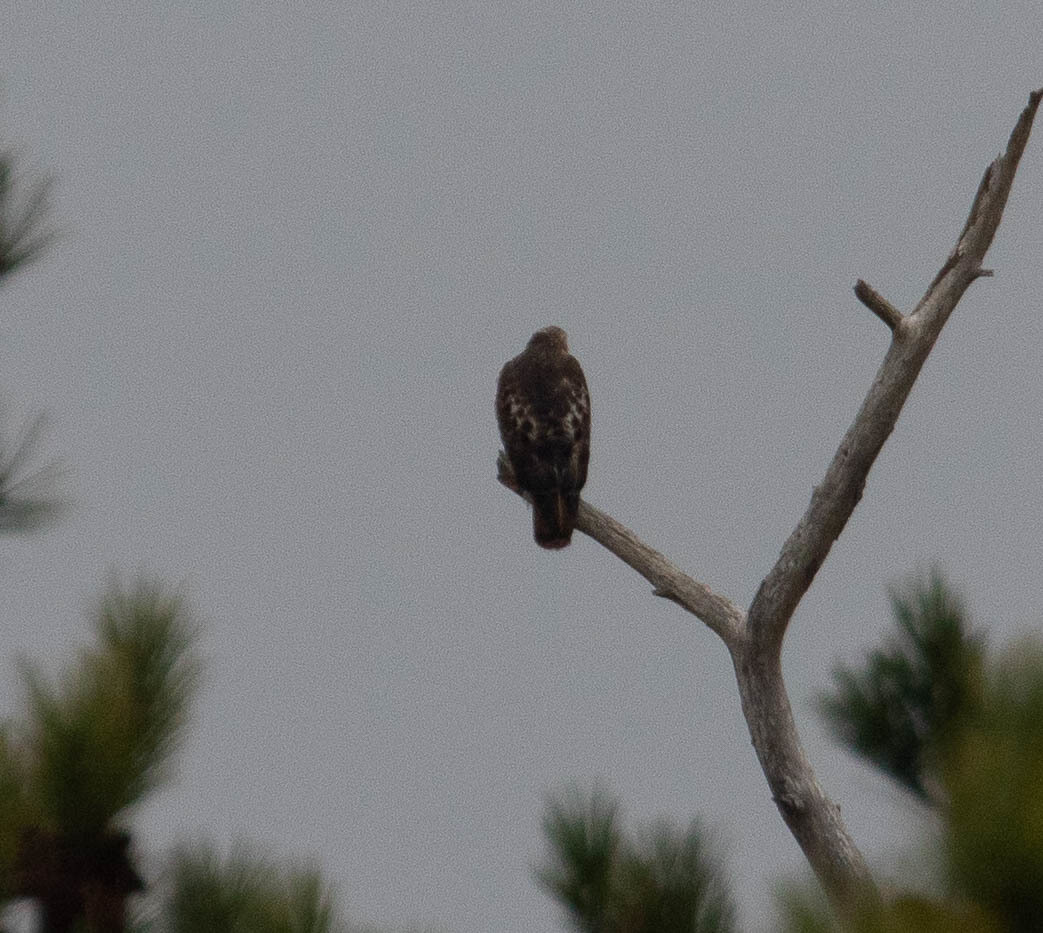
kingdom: Animalia
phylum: Chordata
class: Aves
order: Accipitriformes
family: Accipitridae
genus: Buteo
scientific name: Buteo jamaicensis
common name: Red-tailed hawk
